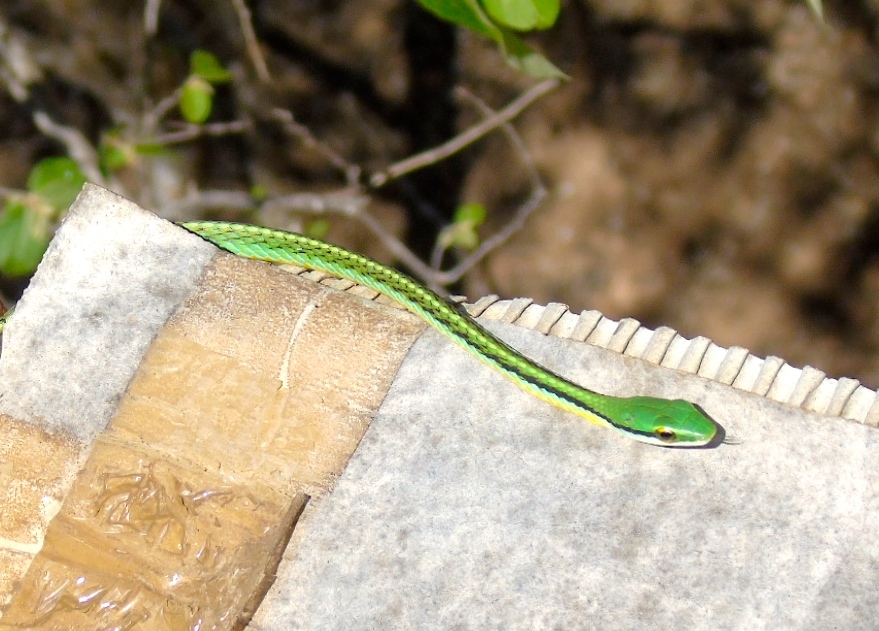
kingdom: Animalia
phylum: Chordata
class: Squamata
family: Colubridae
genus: Leptophis
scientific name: Leptophis diplotropis
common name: Pacific coast parrot snake
